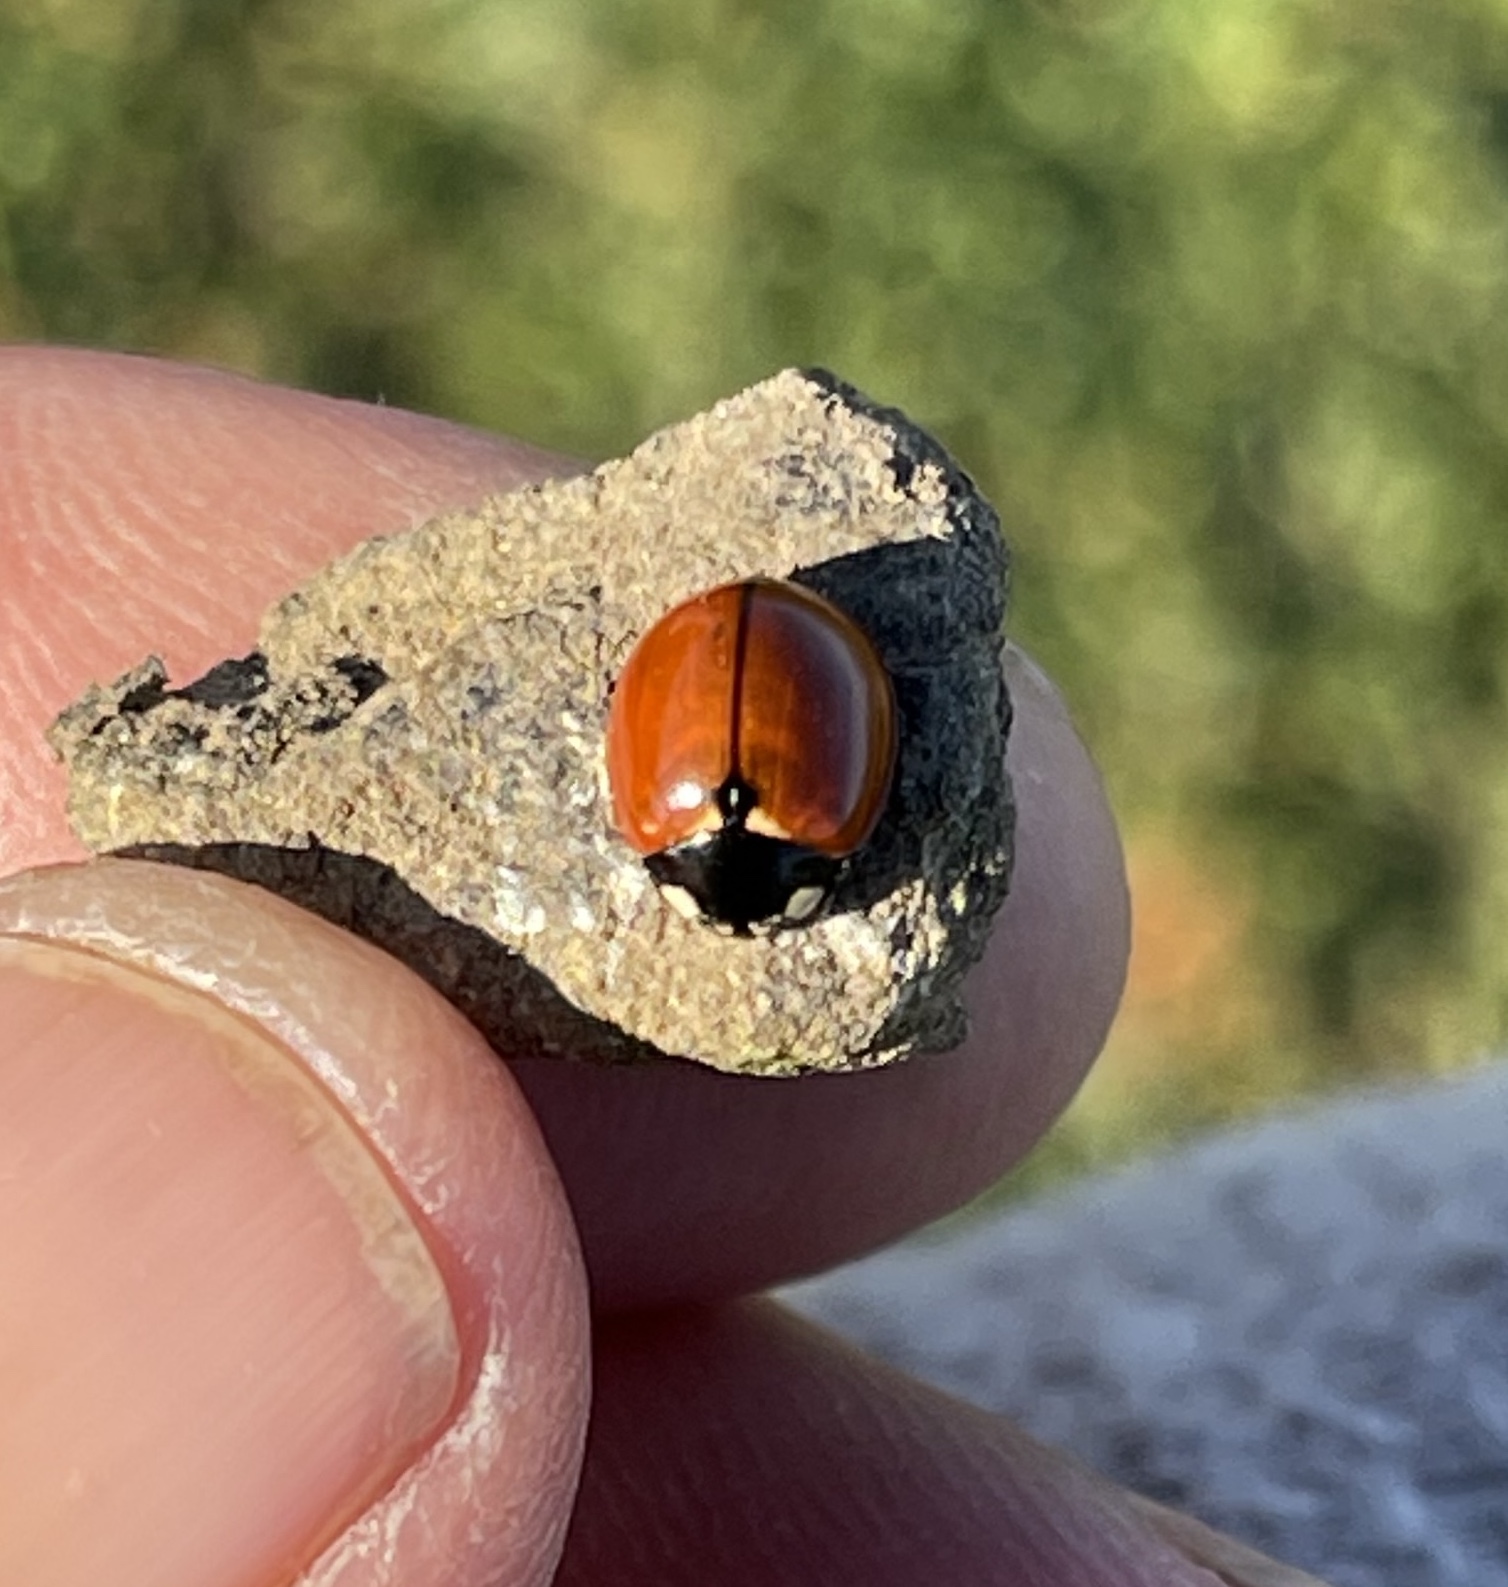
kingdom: Animalia
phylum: Arthropoda
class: Insecta
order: Coleoptera
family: Coccinellidae
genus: Coccinella
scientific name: Coccinella californica
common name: Lady beetle
